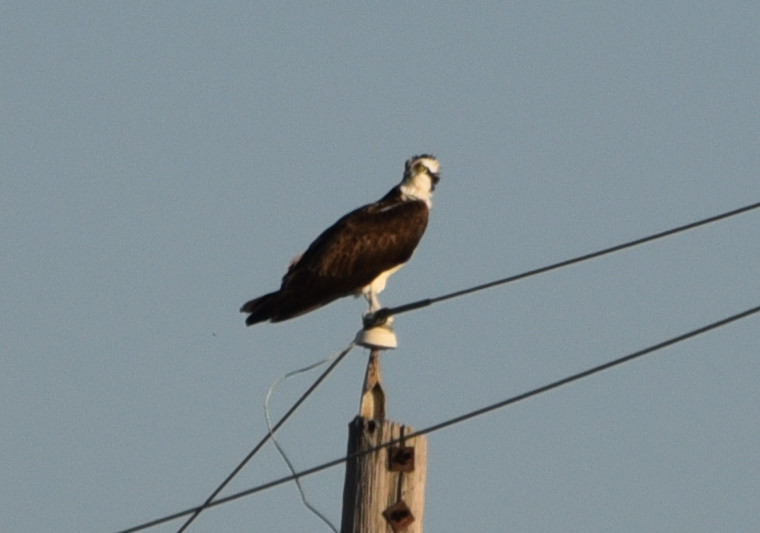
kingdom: Animalia
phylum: Chordata
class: Aves
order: Accipitriformes
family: Pandionidae
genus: Pandion
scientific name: Pandion haliaetus
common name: Osprey
